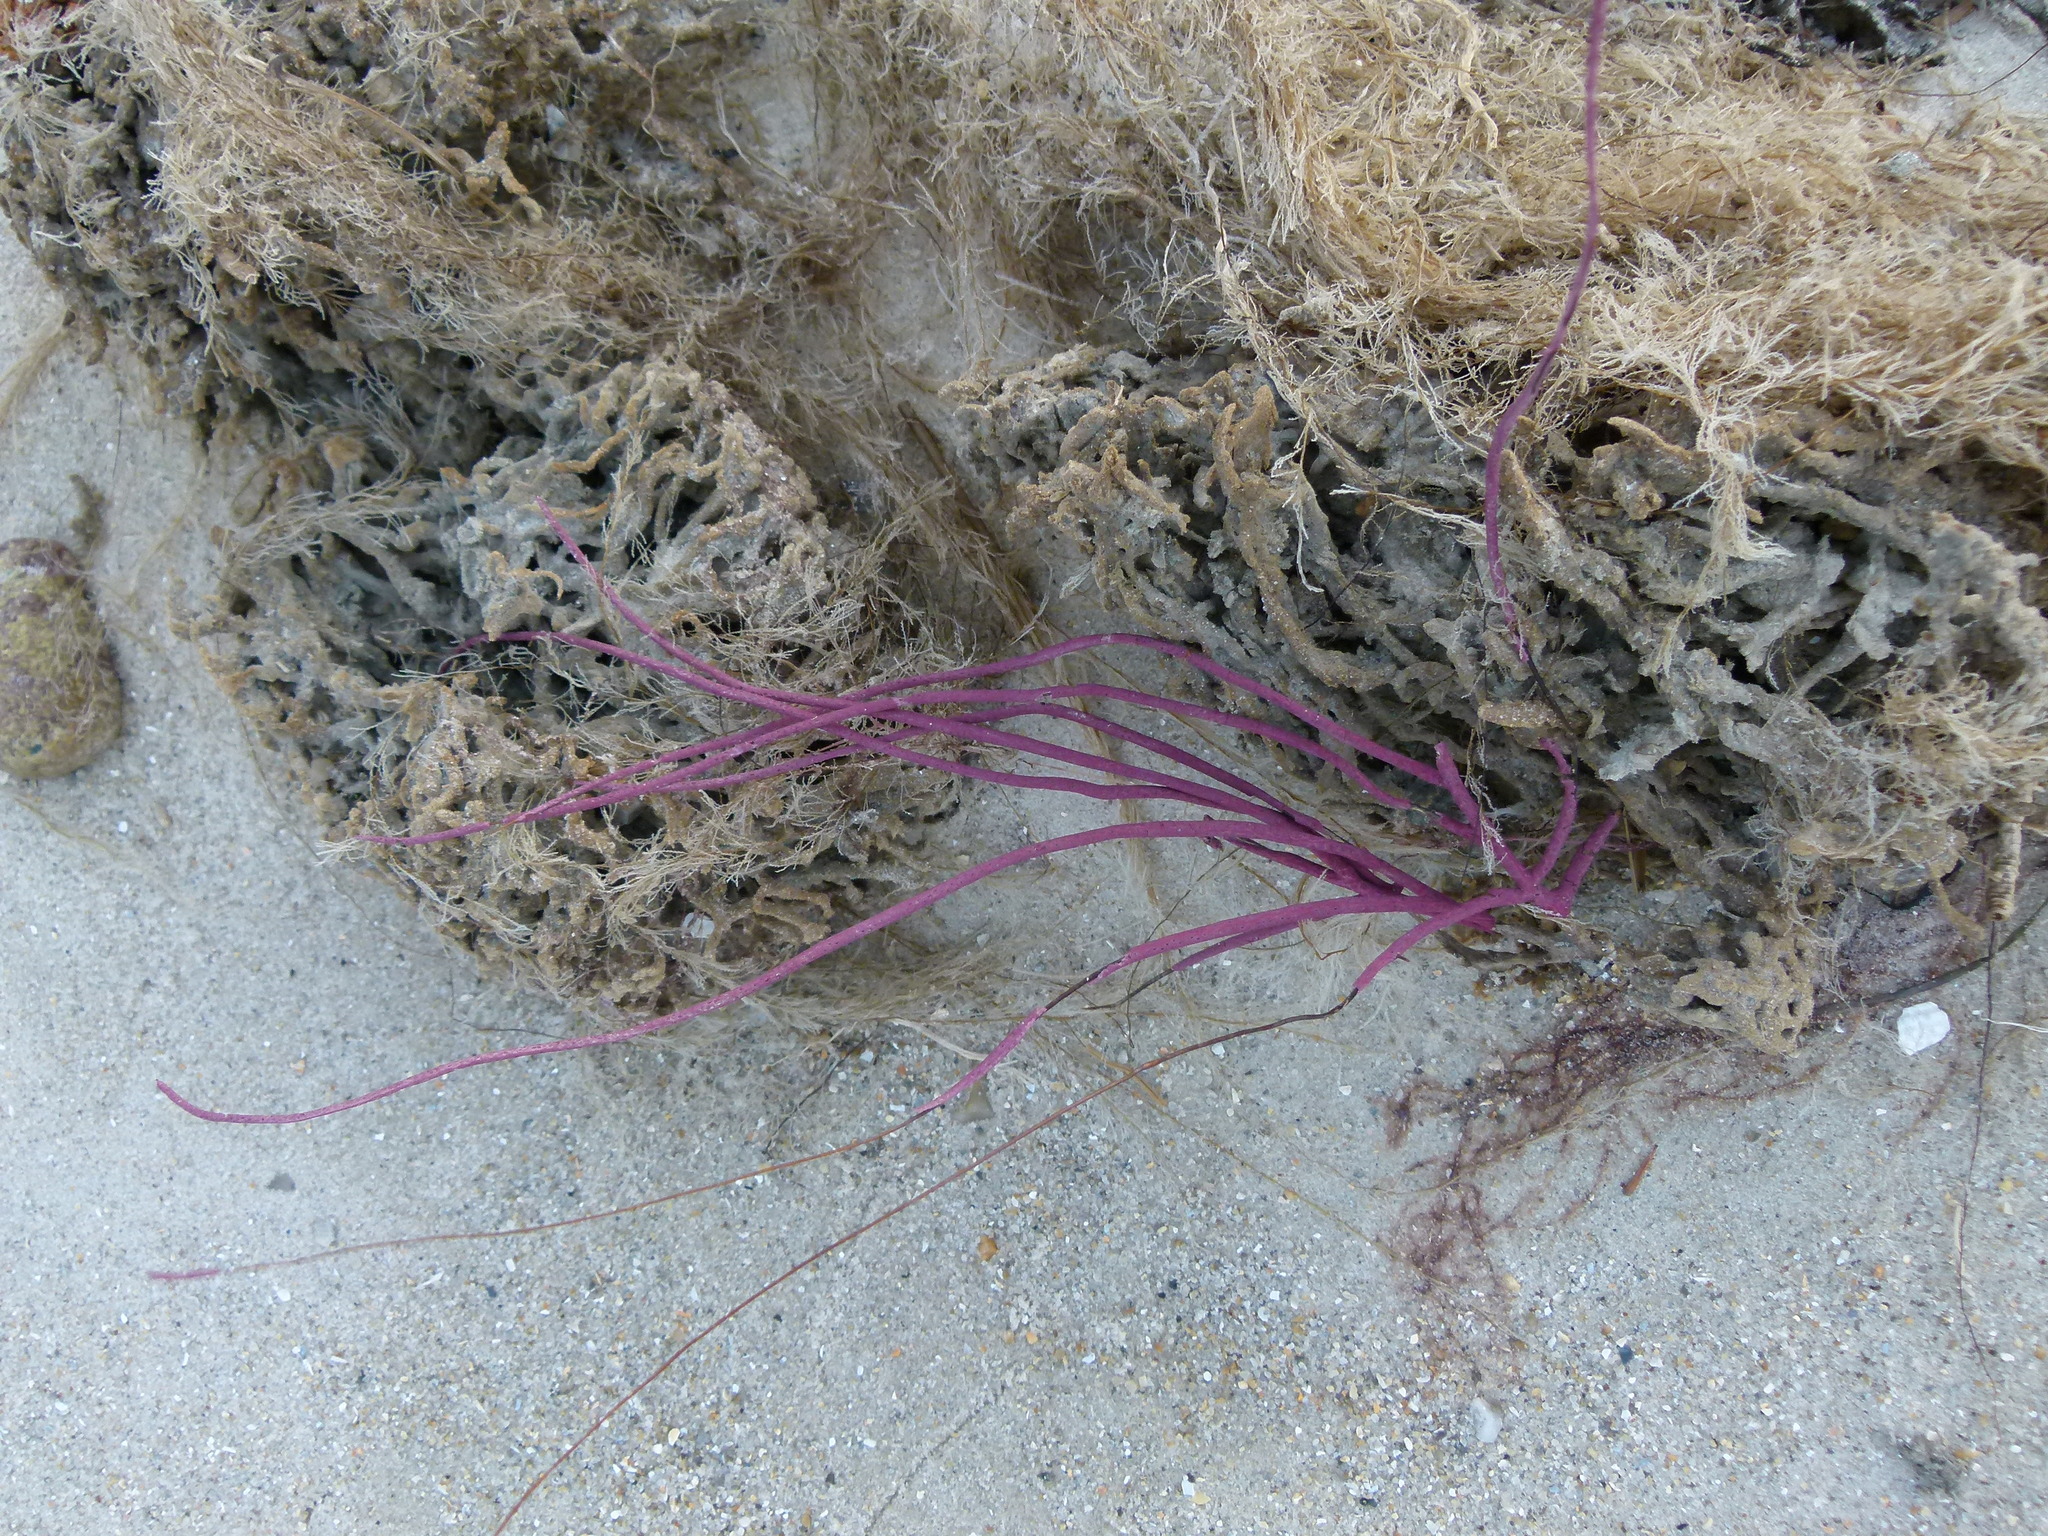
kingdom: Animalia
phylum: Cnidaria
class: Anthozoa
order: Malacalcyonacea
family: Gorgoniidae
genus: Leptogorgia
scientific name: Leptogorgia virgulata
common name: Colorful sea whip
